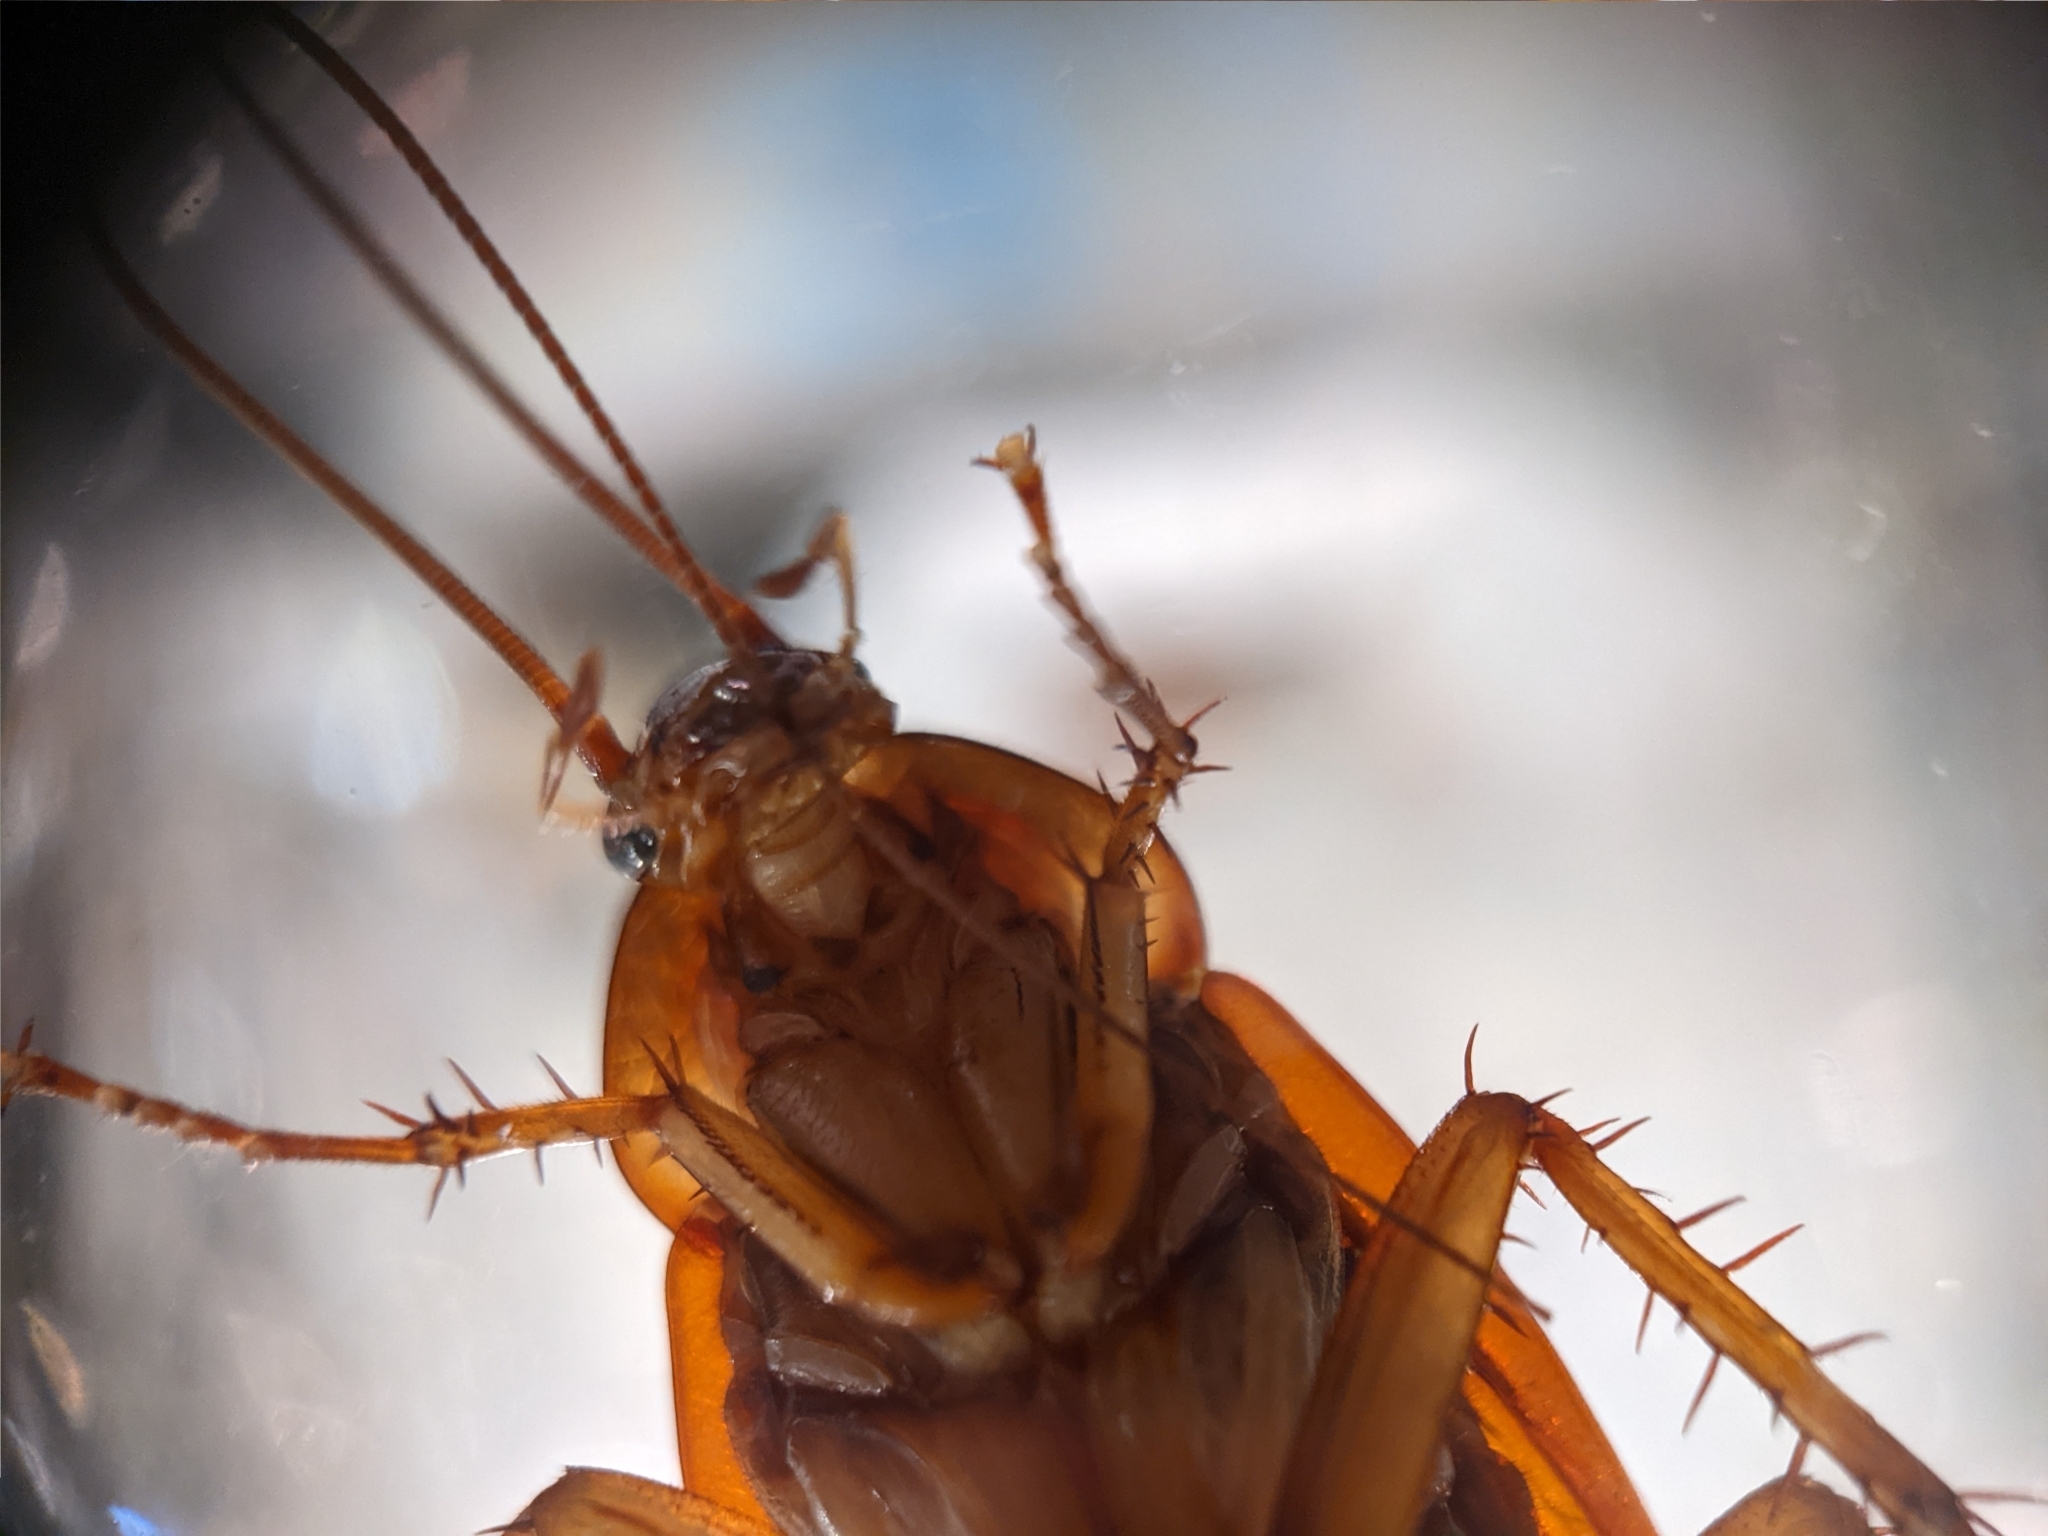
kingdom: Animalia
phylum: Arthropoda
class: Insecta
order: Blattodea
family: Blattidae
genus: Periplaneta
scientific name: Periplaneta americana
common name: American cockroach
